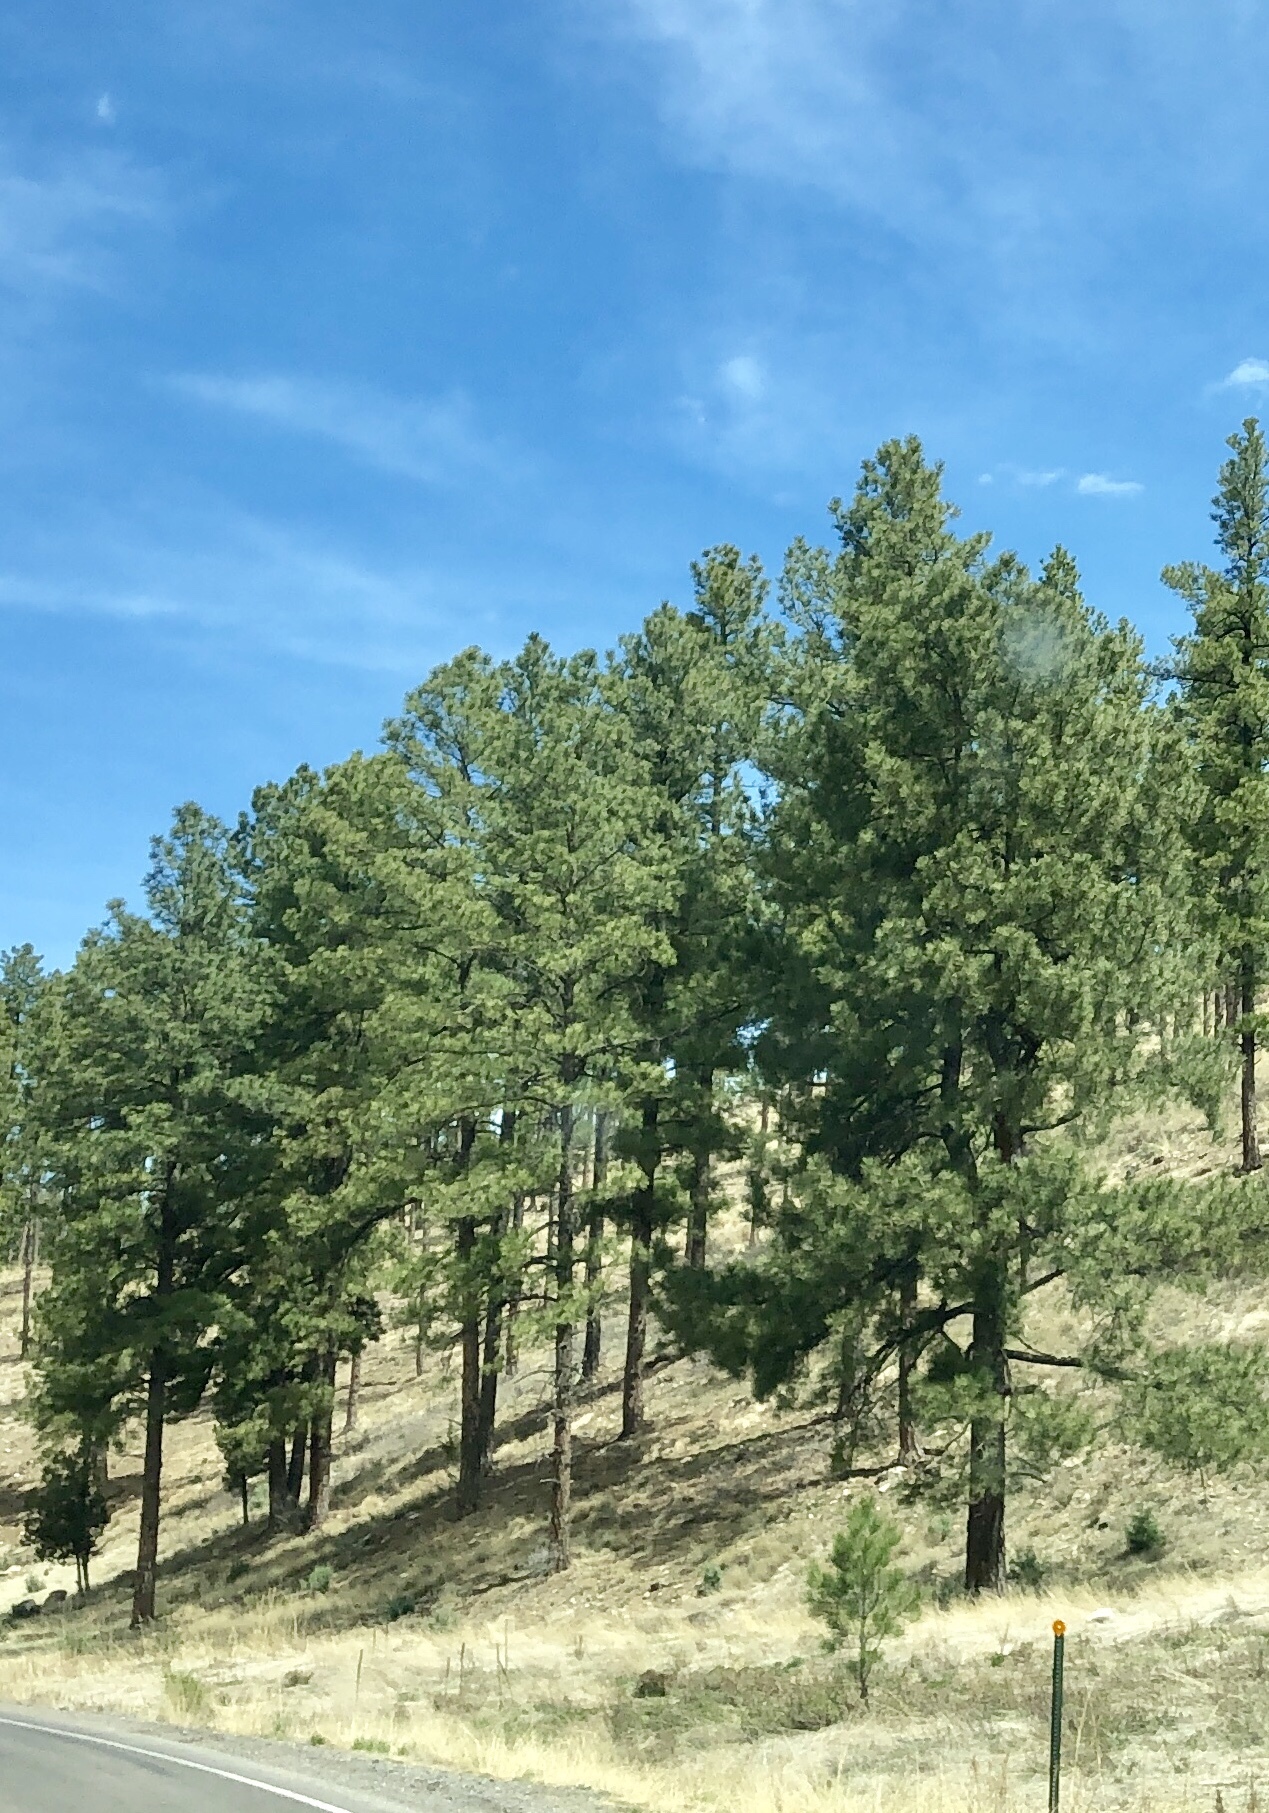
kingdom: Plantae
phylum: Tracheophyta
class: Pinopsida
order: Pinales
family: Pinaceae
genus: Pinus
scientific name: Pinus ponderosa
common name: Western yellow-pine
